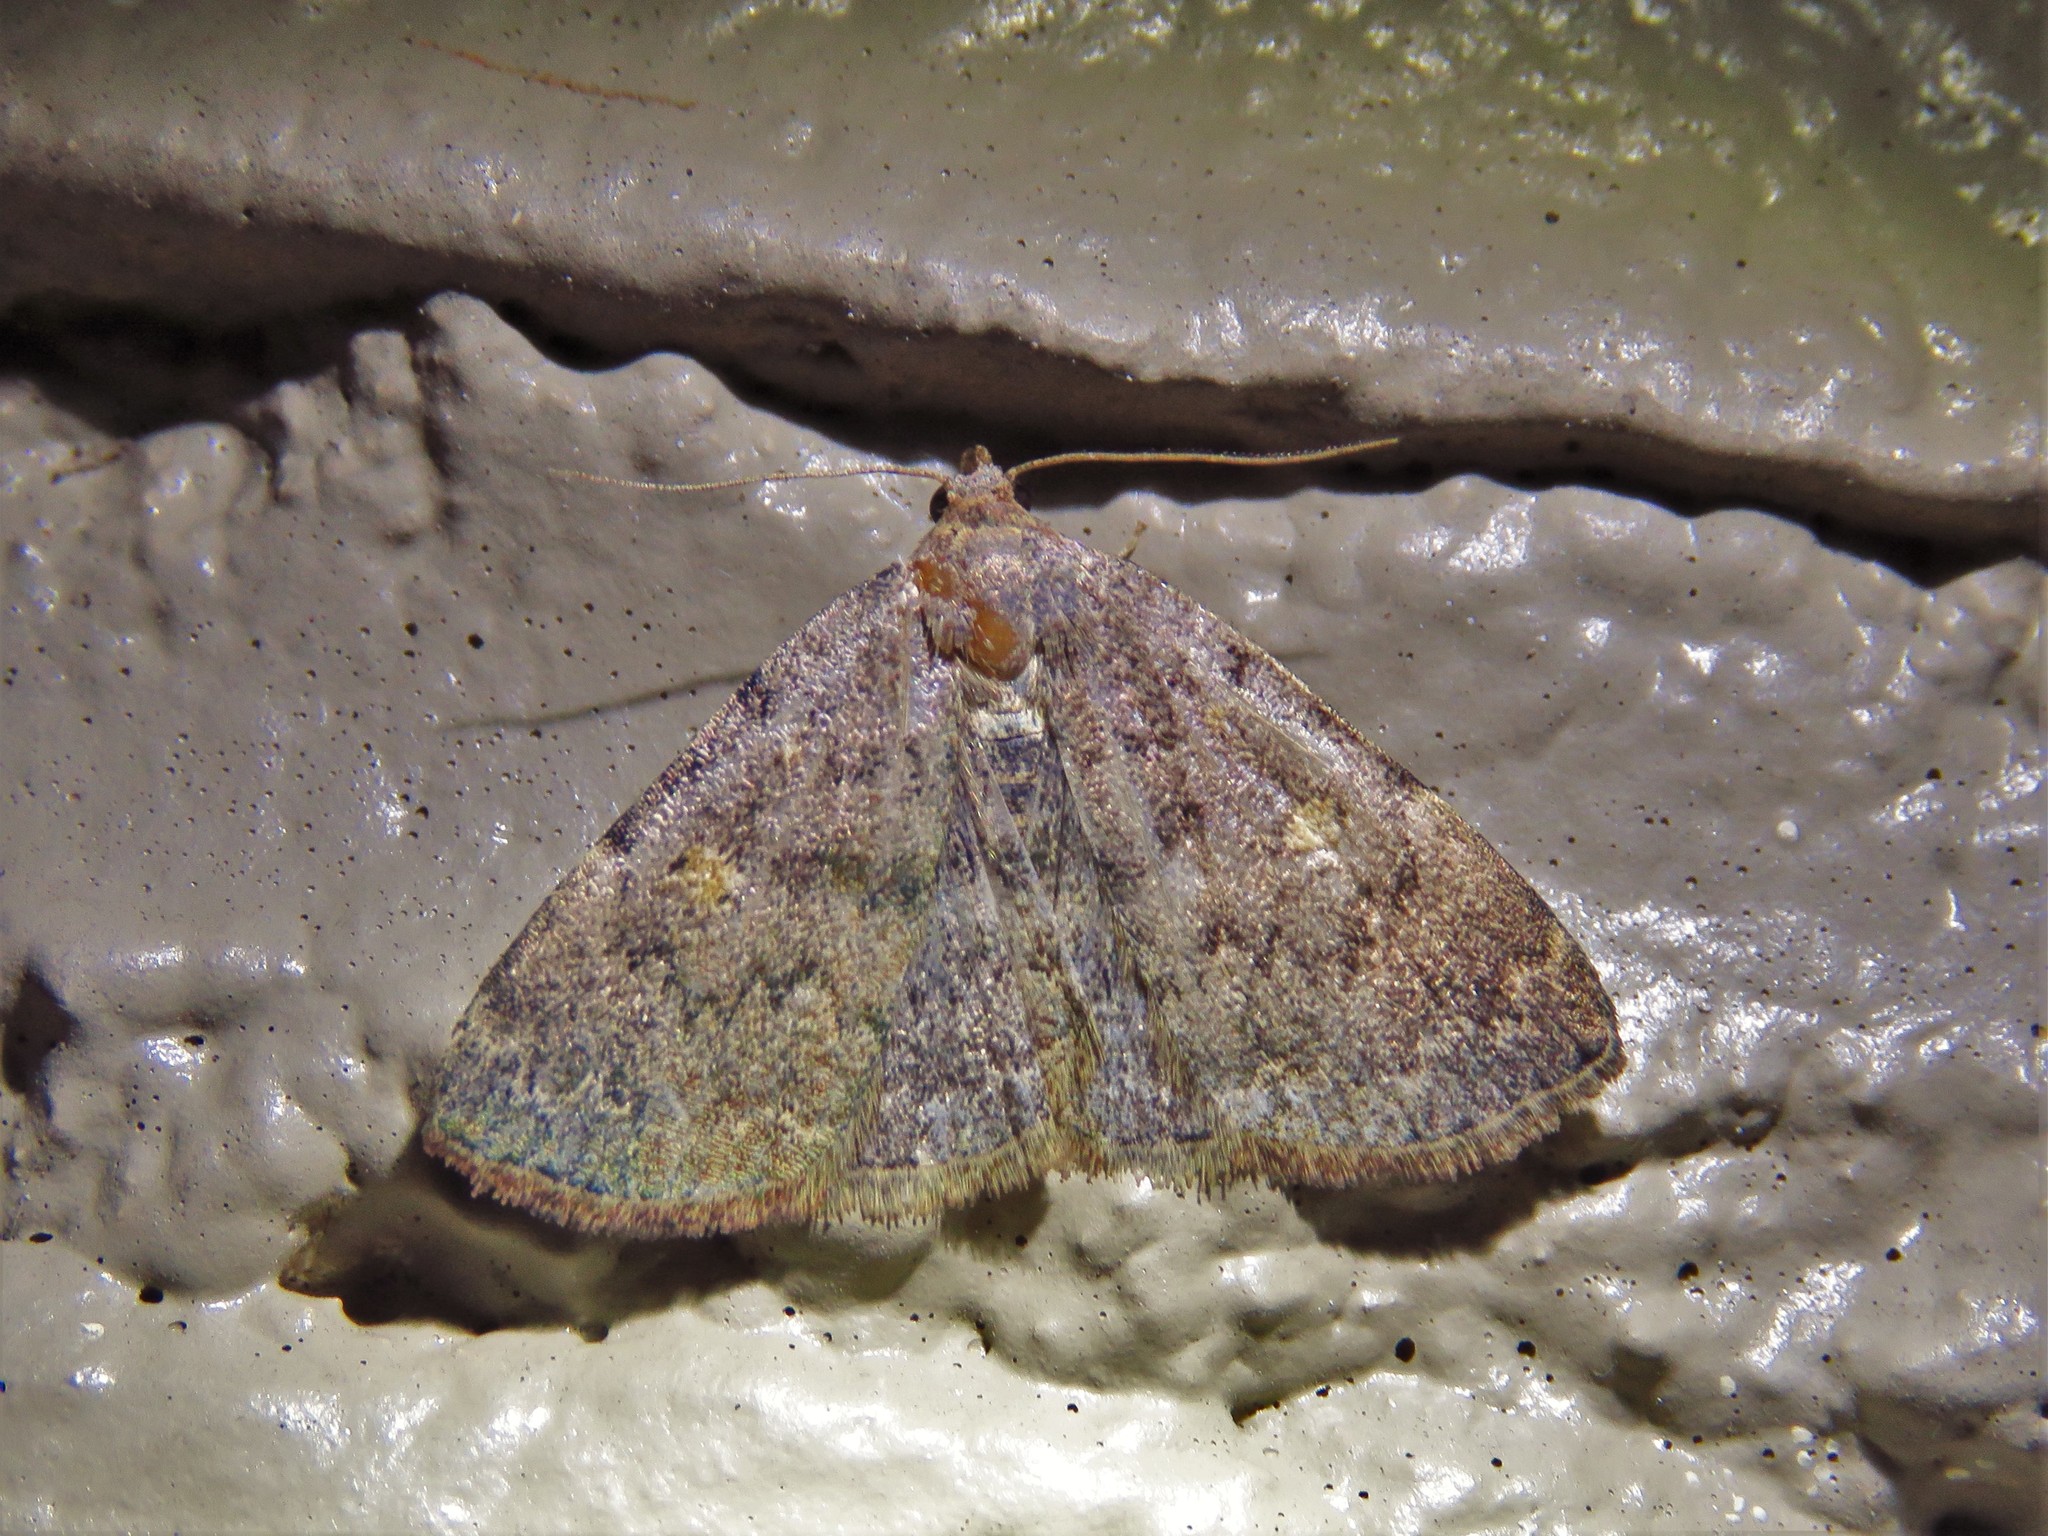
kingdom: Animalia
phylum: Arthropoda
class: Insecta
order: Lepidoptera
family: Erebidae
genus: Idia
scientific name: Idia aemula
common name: Common idia moth
